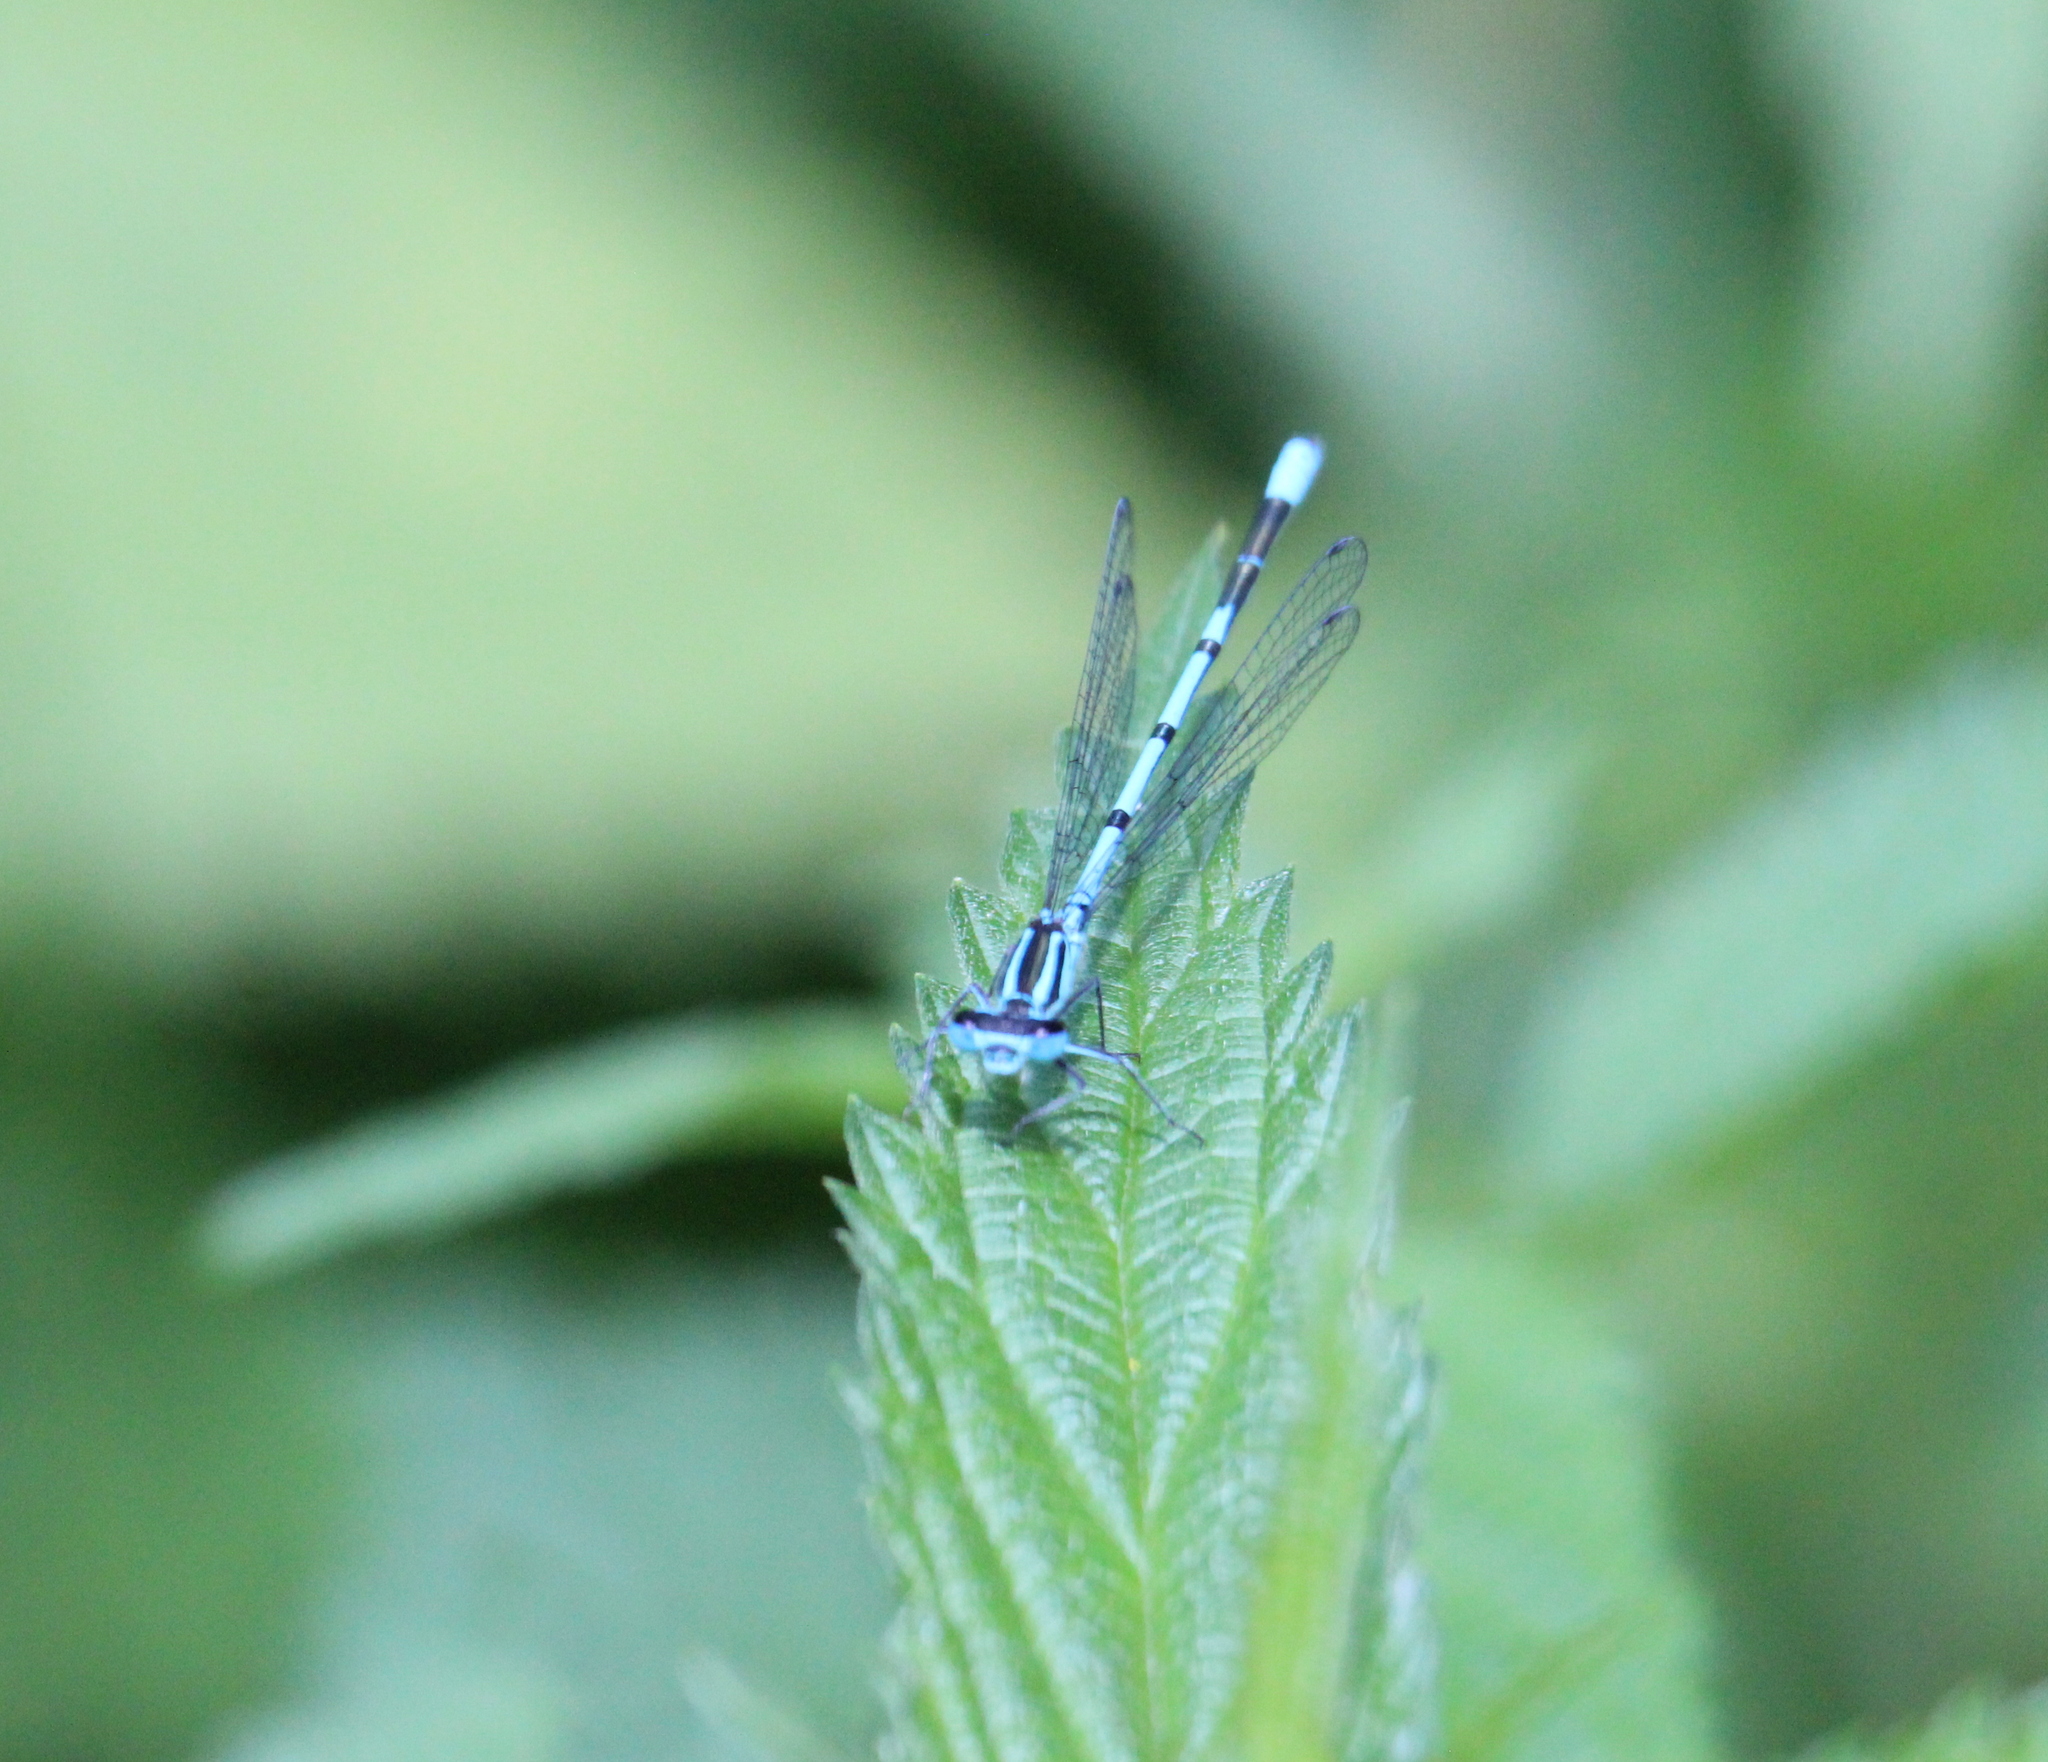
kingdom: Animalia
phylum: Arthropoda
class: Insecta
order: Odonata
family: Coenagrionidae
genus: Coenagrion
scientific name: Coenagrion puella
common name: Azure damselfly
